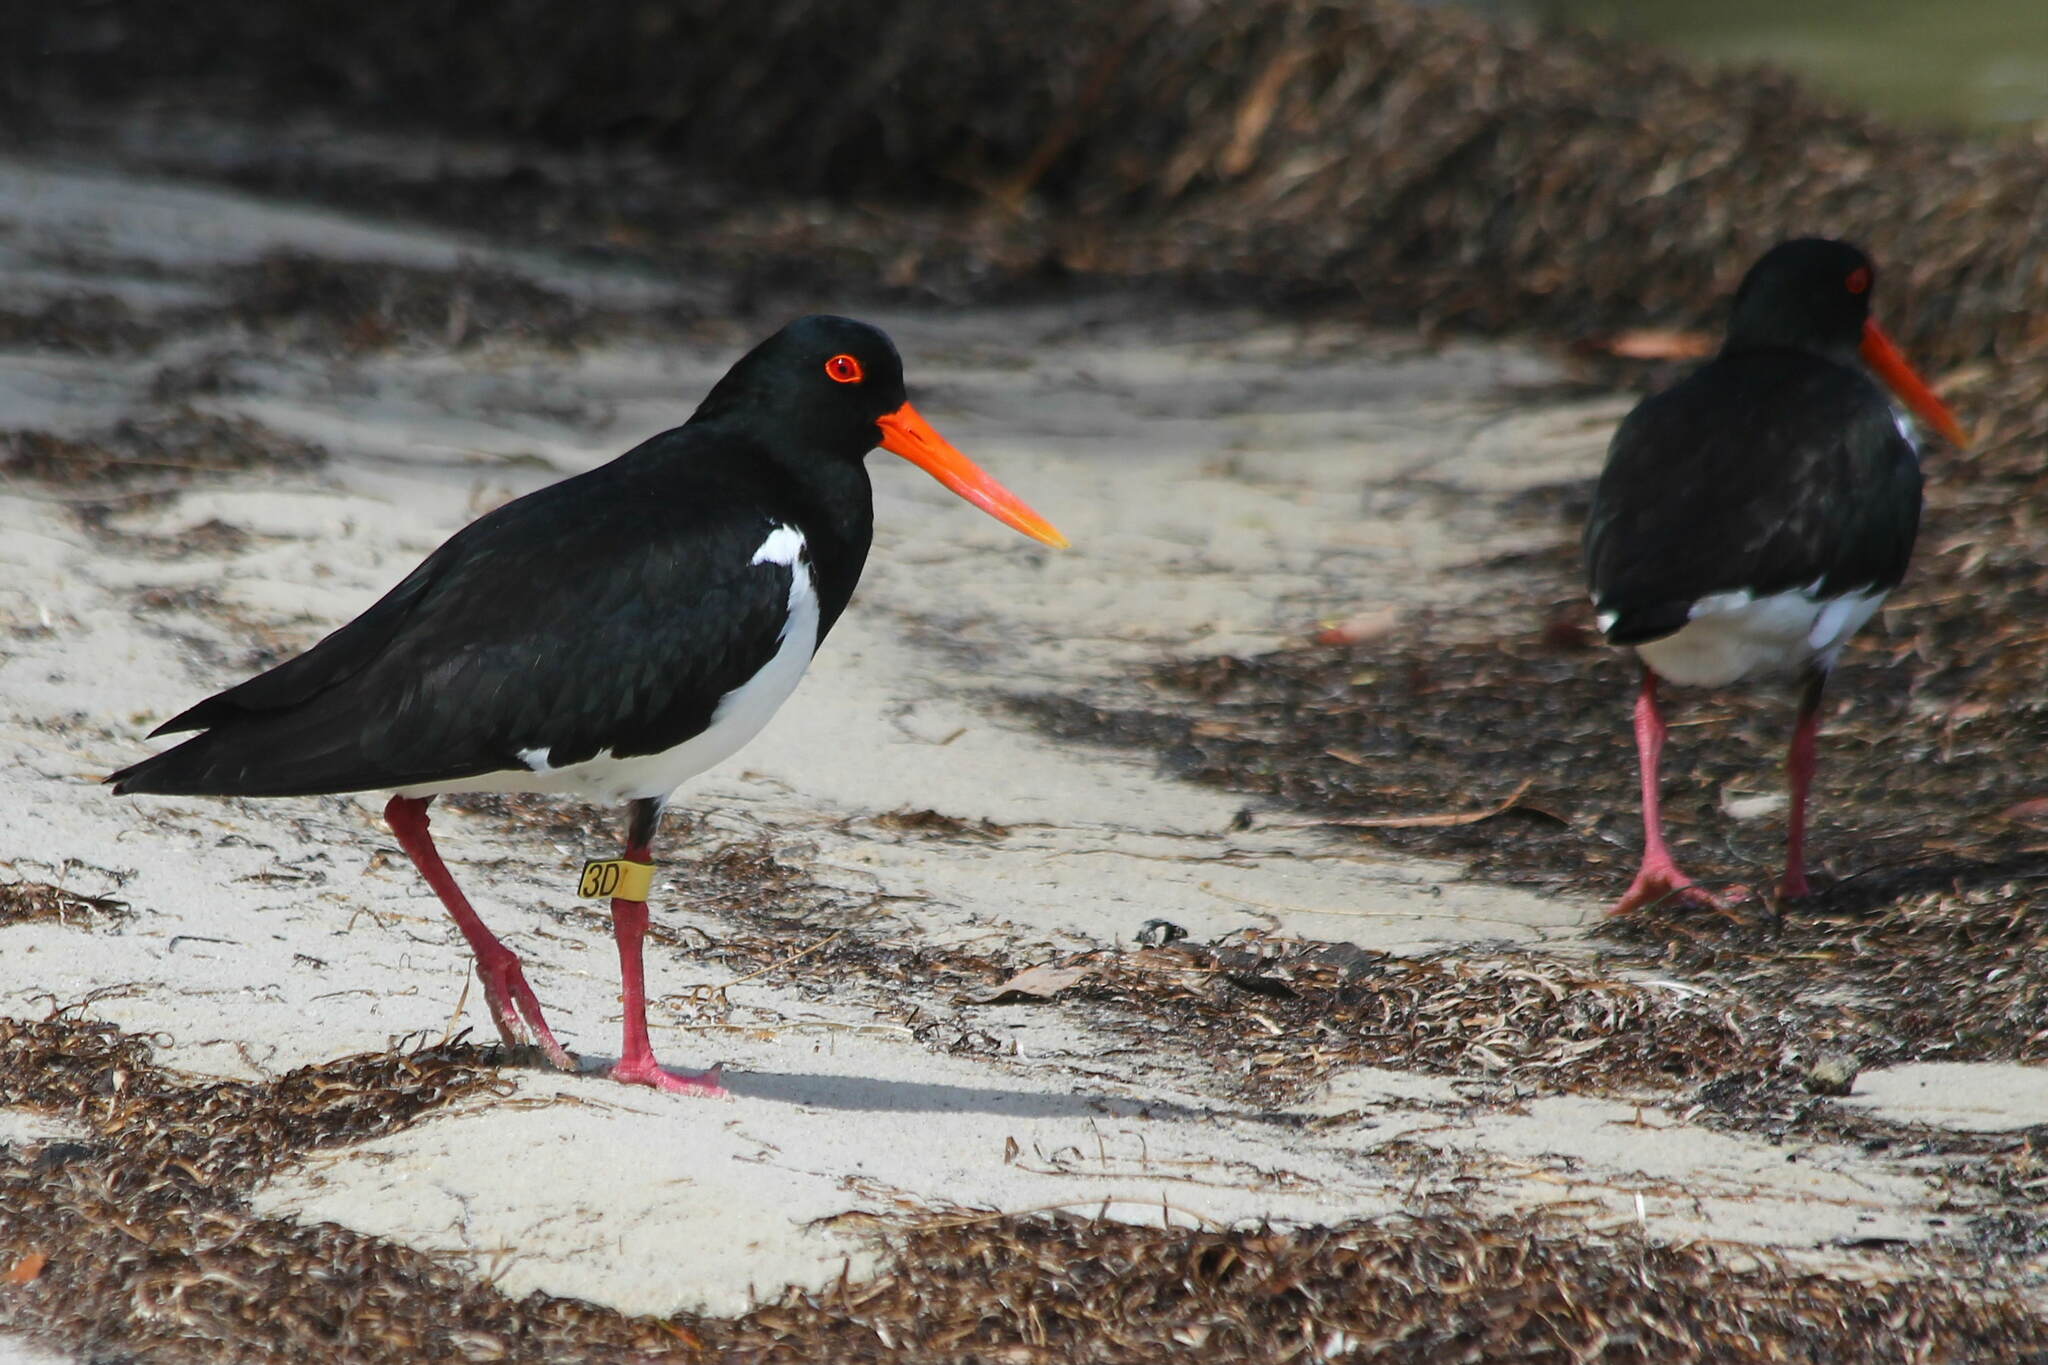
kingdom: Animalia
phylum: Chordata
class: Aves
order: Charadriiformes
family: Haematopodidae
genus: Haematopus
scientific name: Haematopus longirostris
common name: Pied oystercatcher
